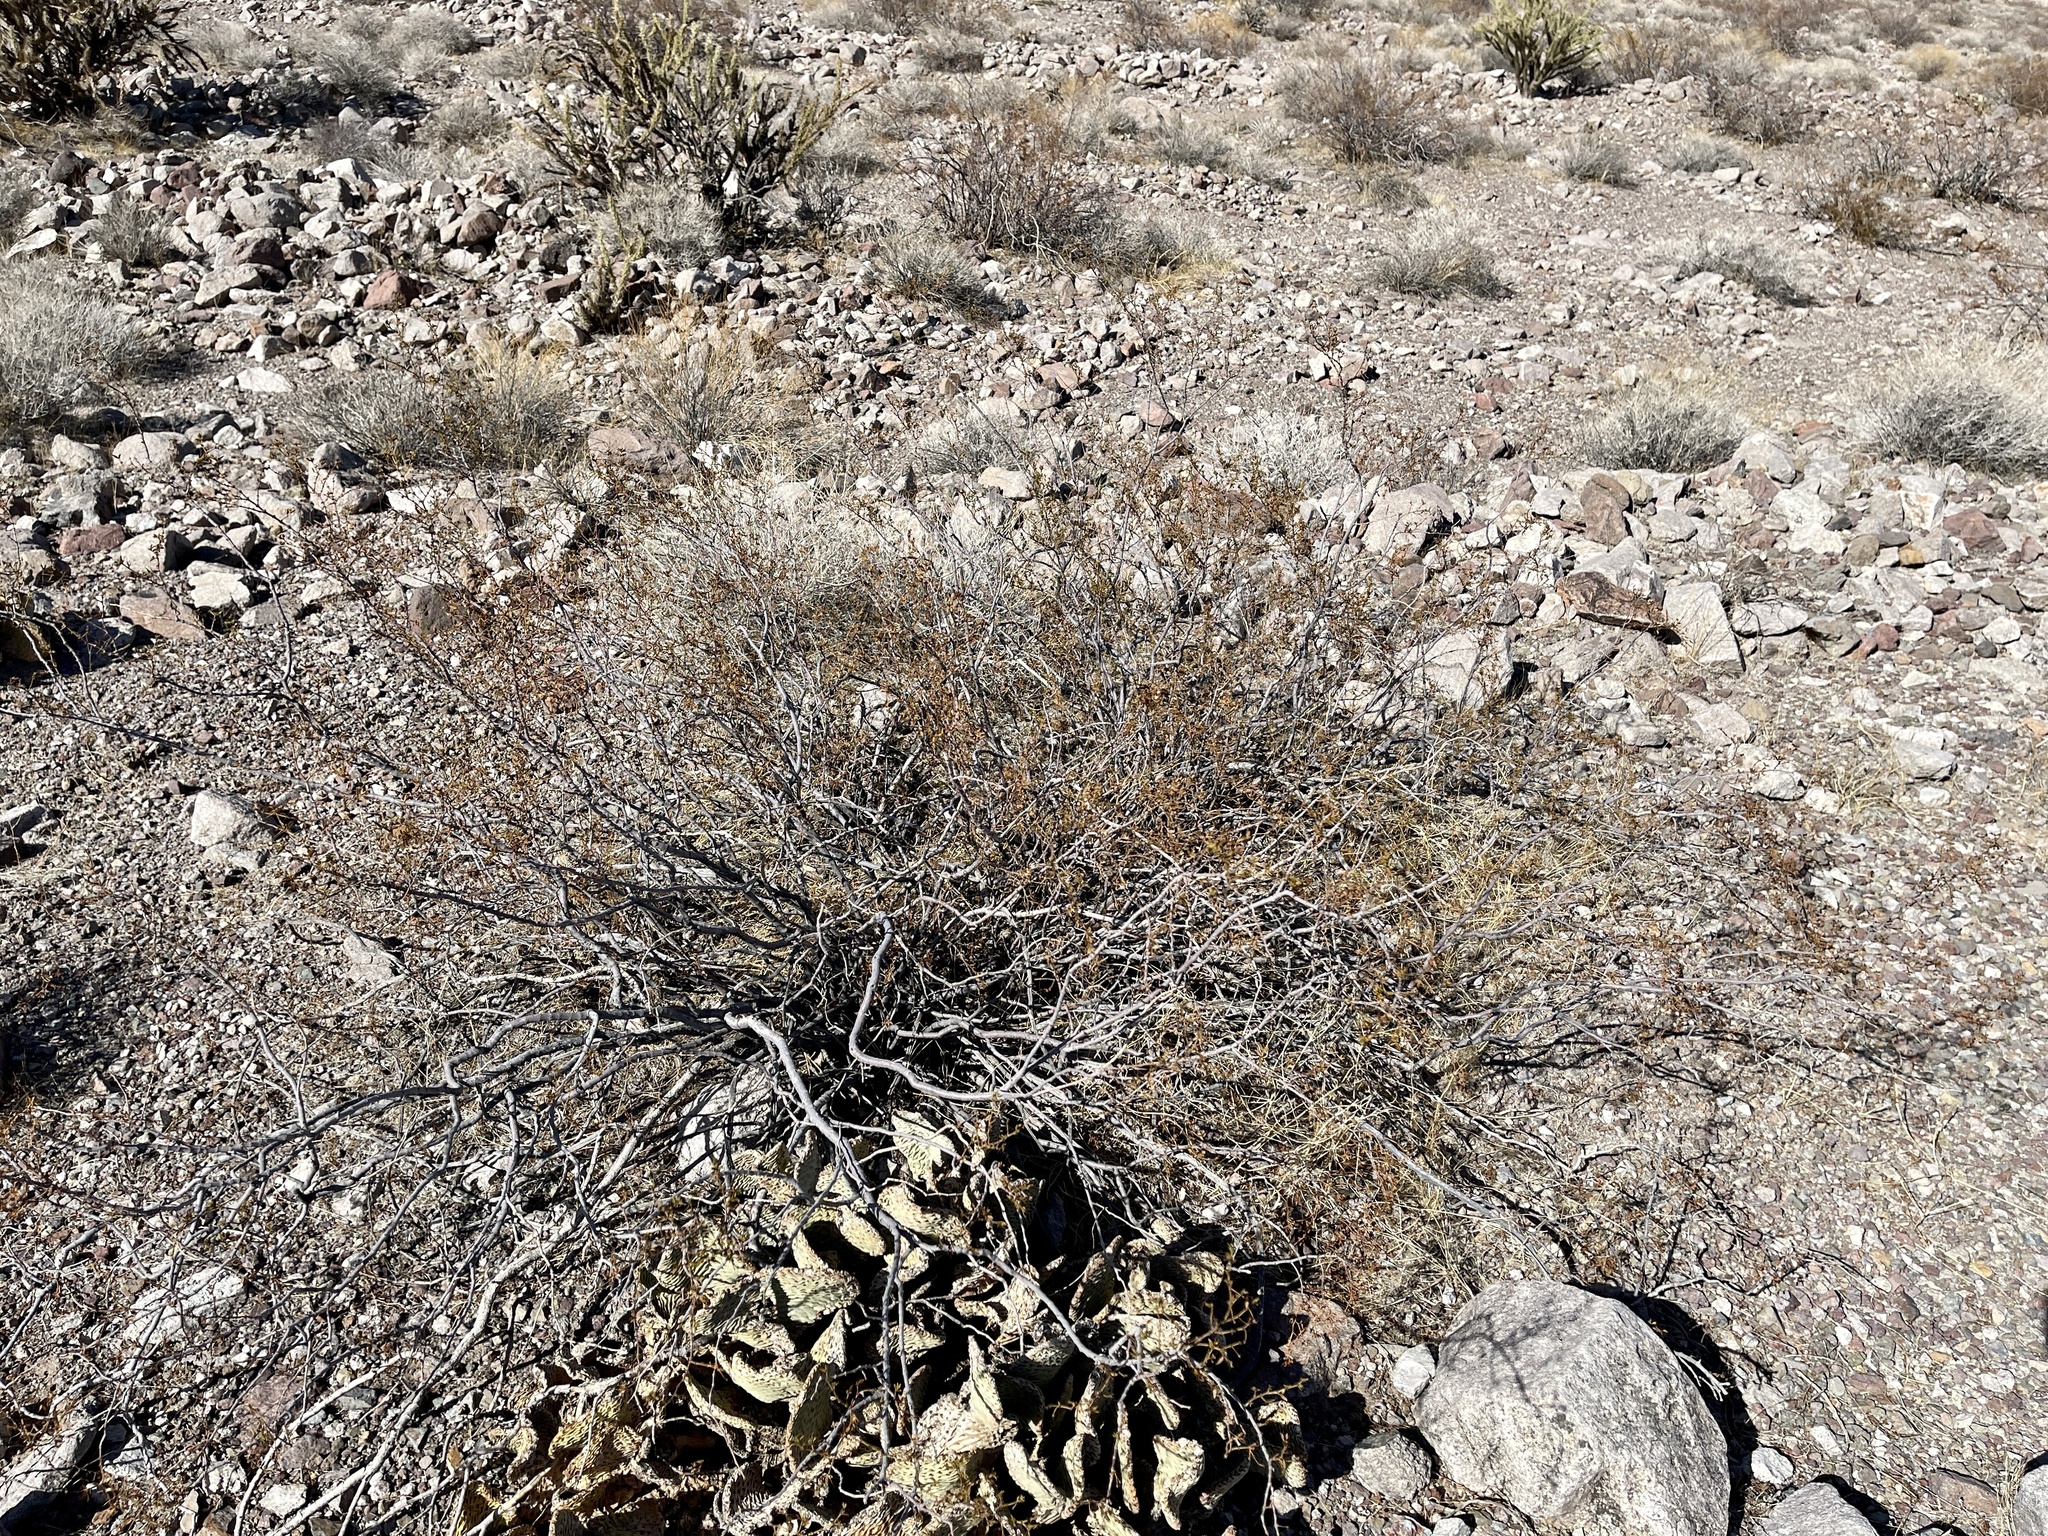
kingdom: Plantae
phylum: Tracheophyta
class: Magnoliopsida
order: Zygophyllales
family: Zygophyllaceae
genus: Larrea
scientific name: Larrea tridentata
